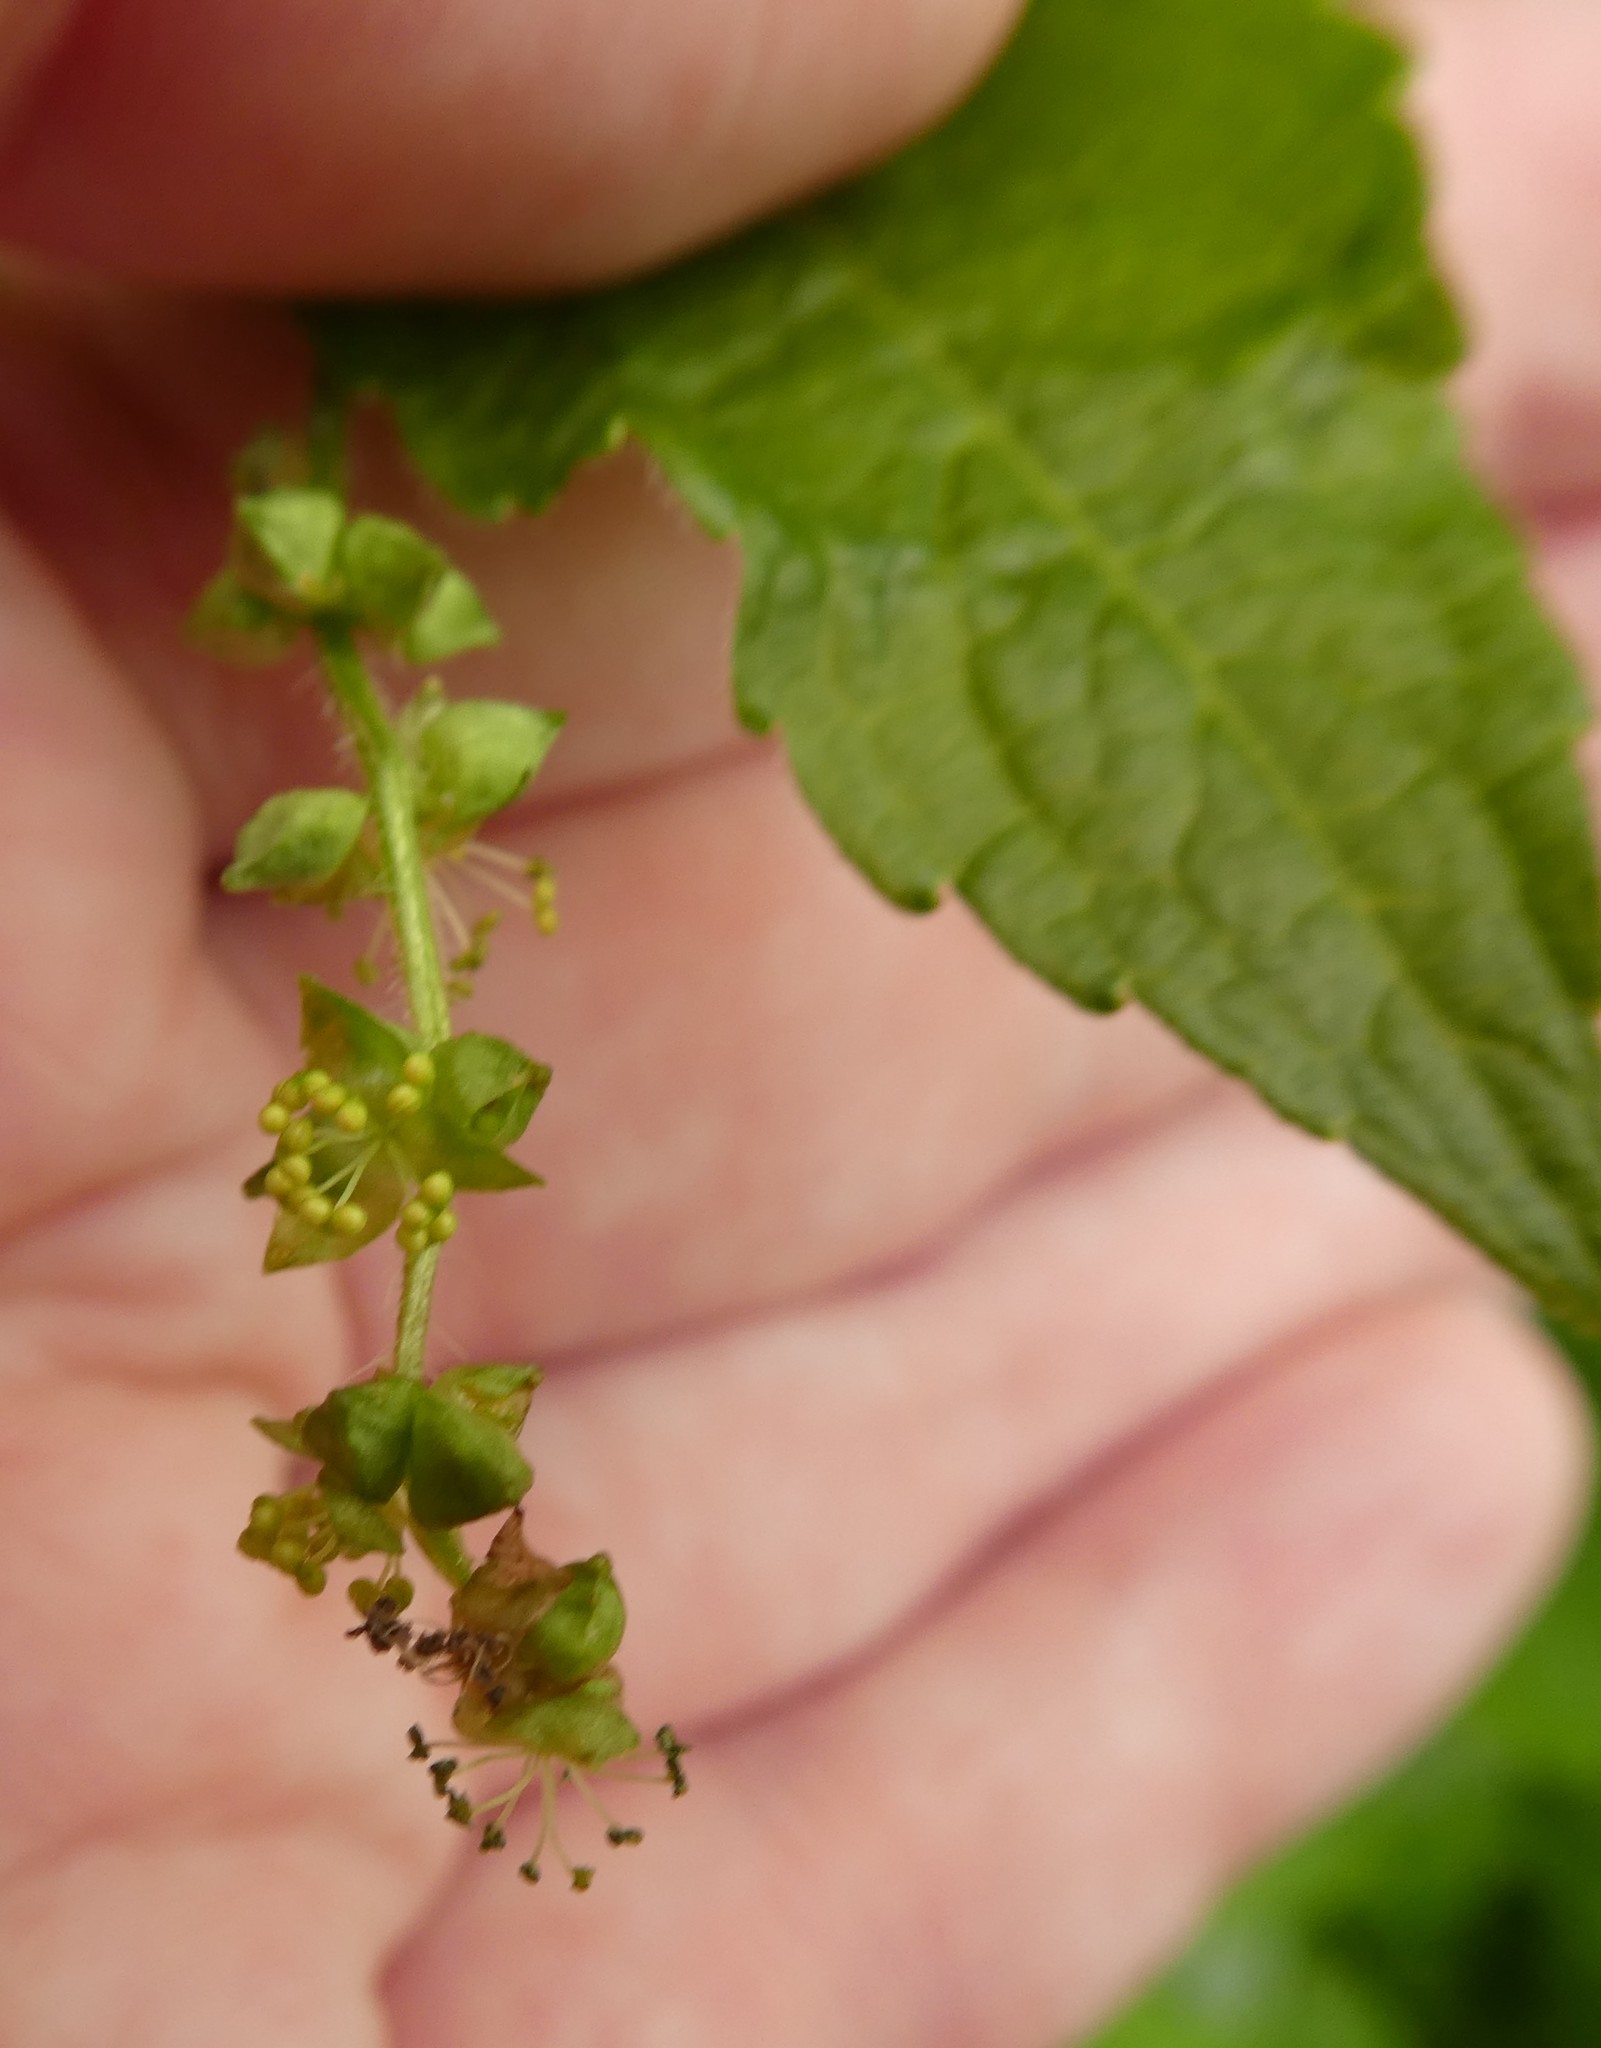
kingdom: Plantae
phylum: Tracheophyta
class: Magnoliopsida
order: Malpighiales
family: Euphorbiaceae
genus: Mercurialis
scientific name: Mercurialis perennis
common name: Dog mercury
